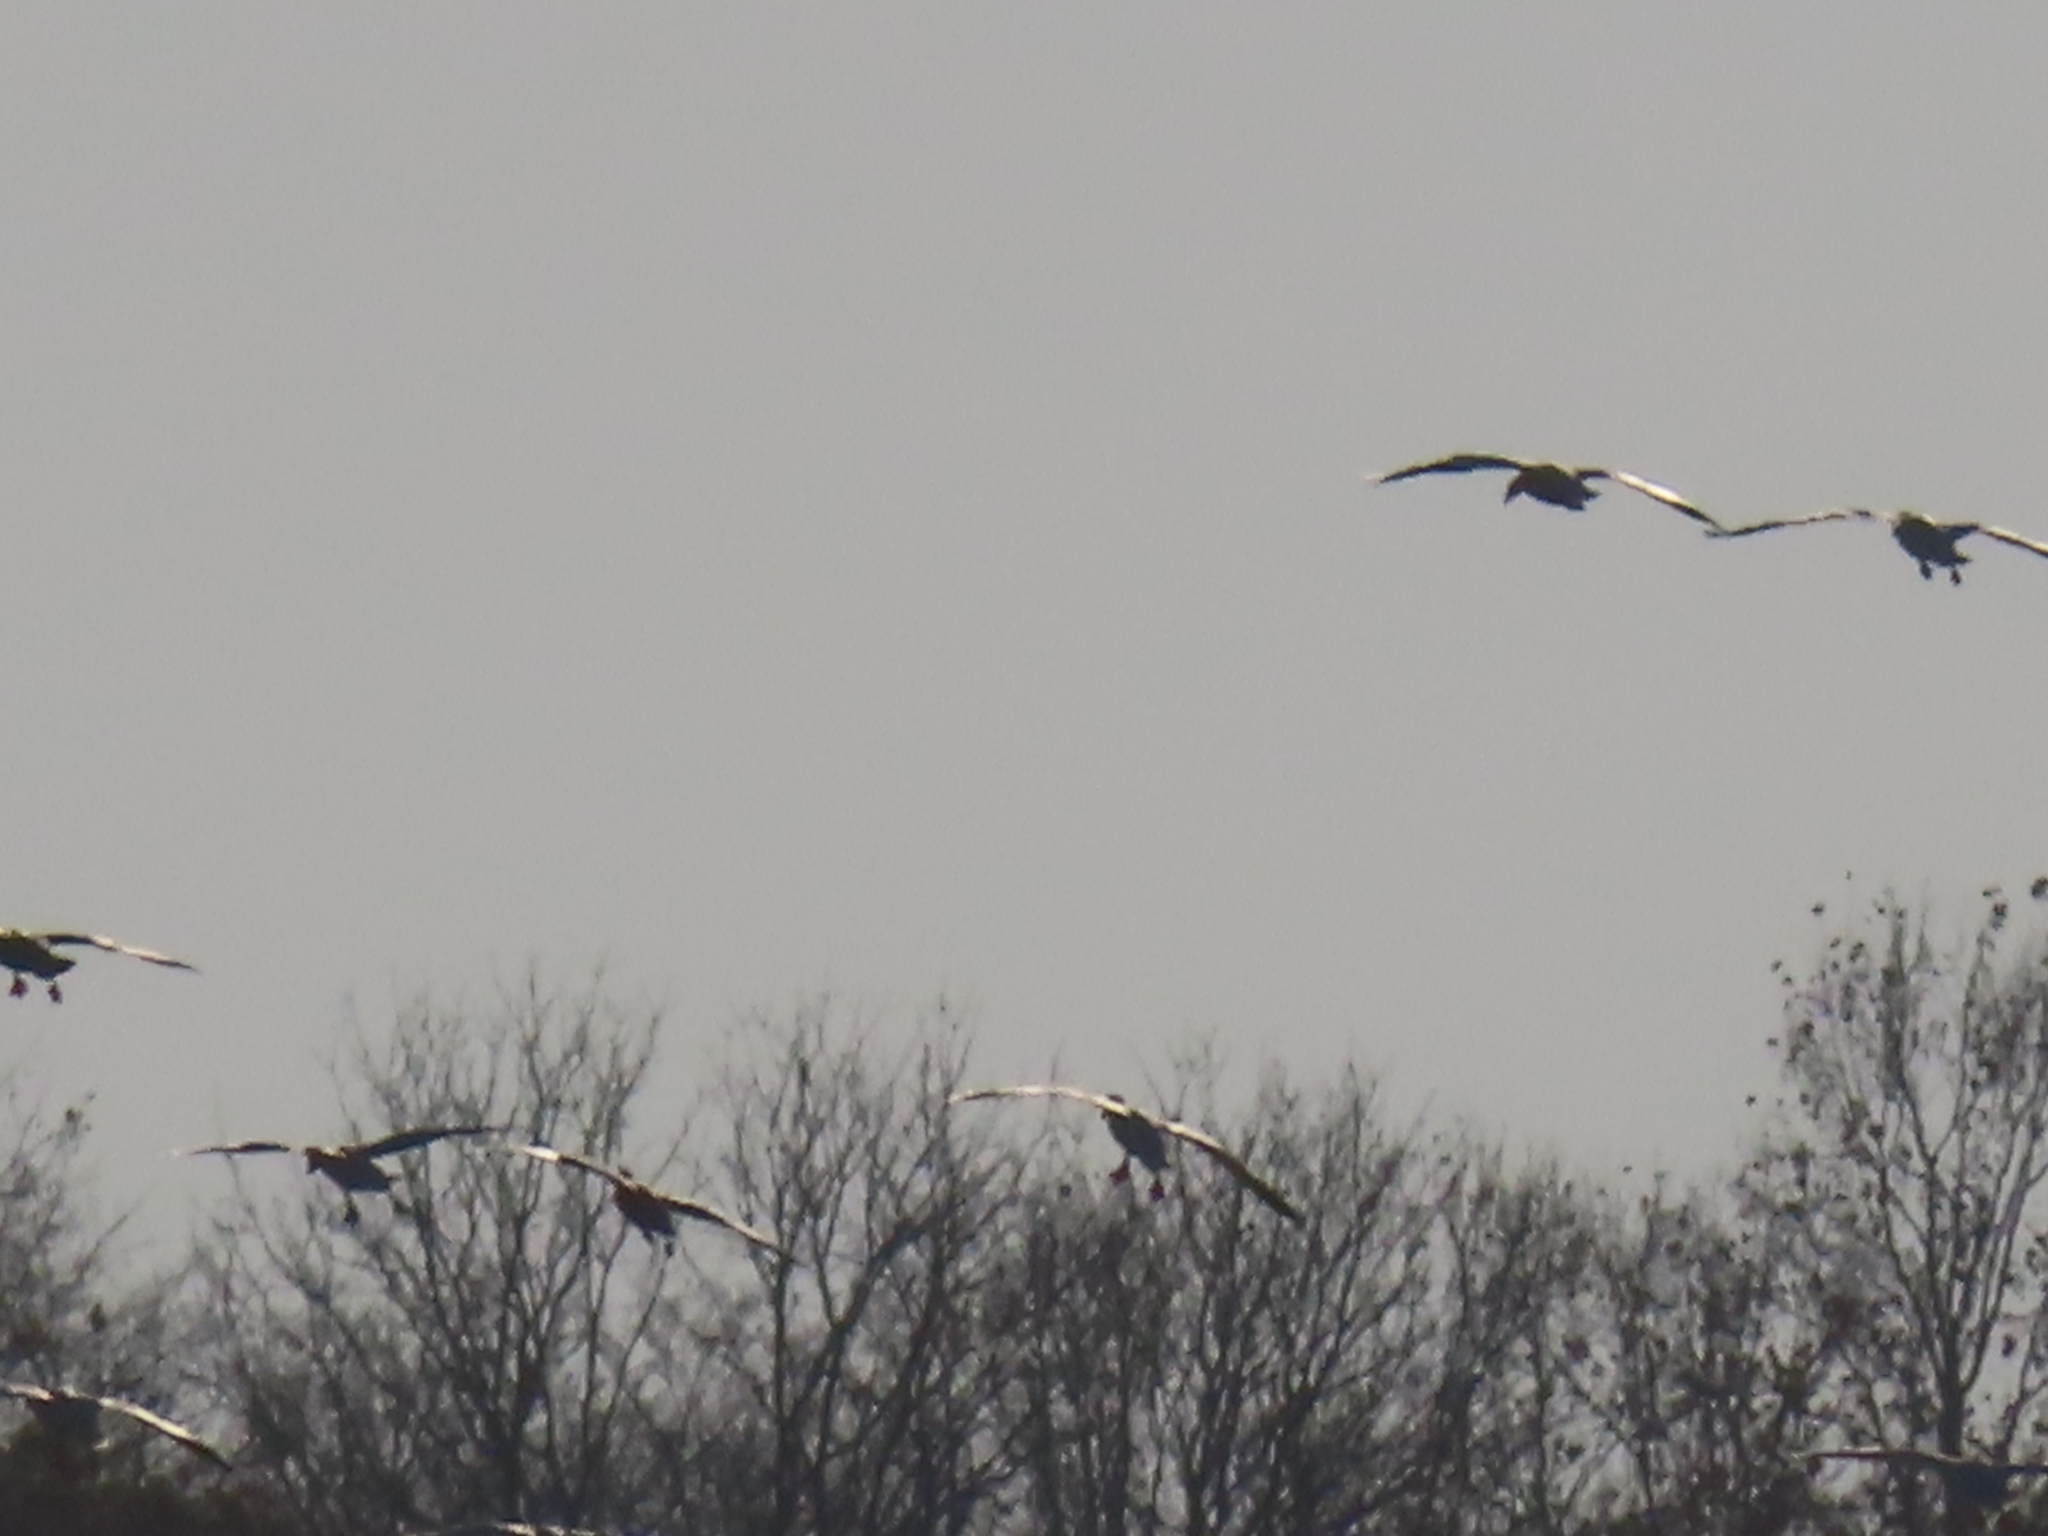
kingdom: Animalia
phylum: Chordata
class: Aves
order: Anseriformes
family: Anatidae
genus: Anser
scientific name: Anser caerulescens
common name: Snow goose
